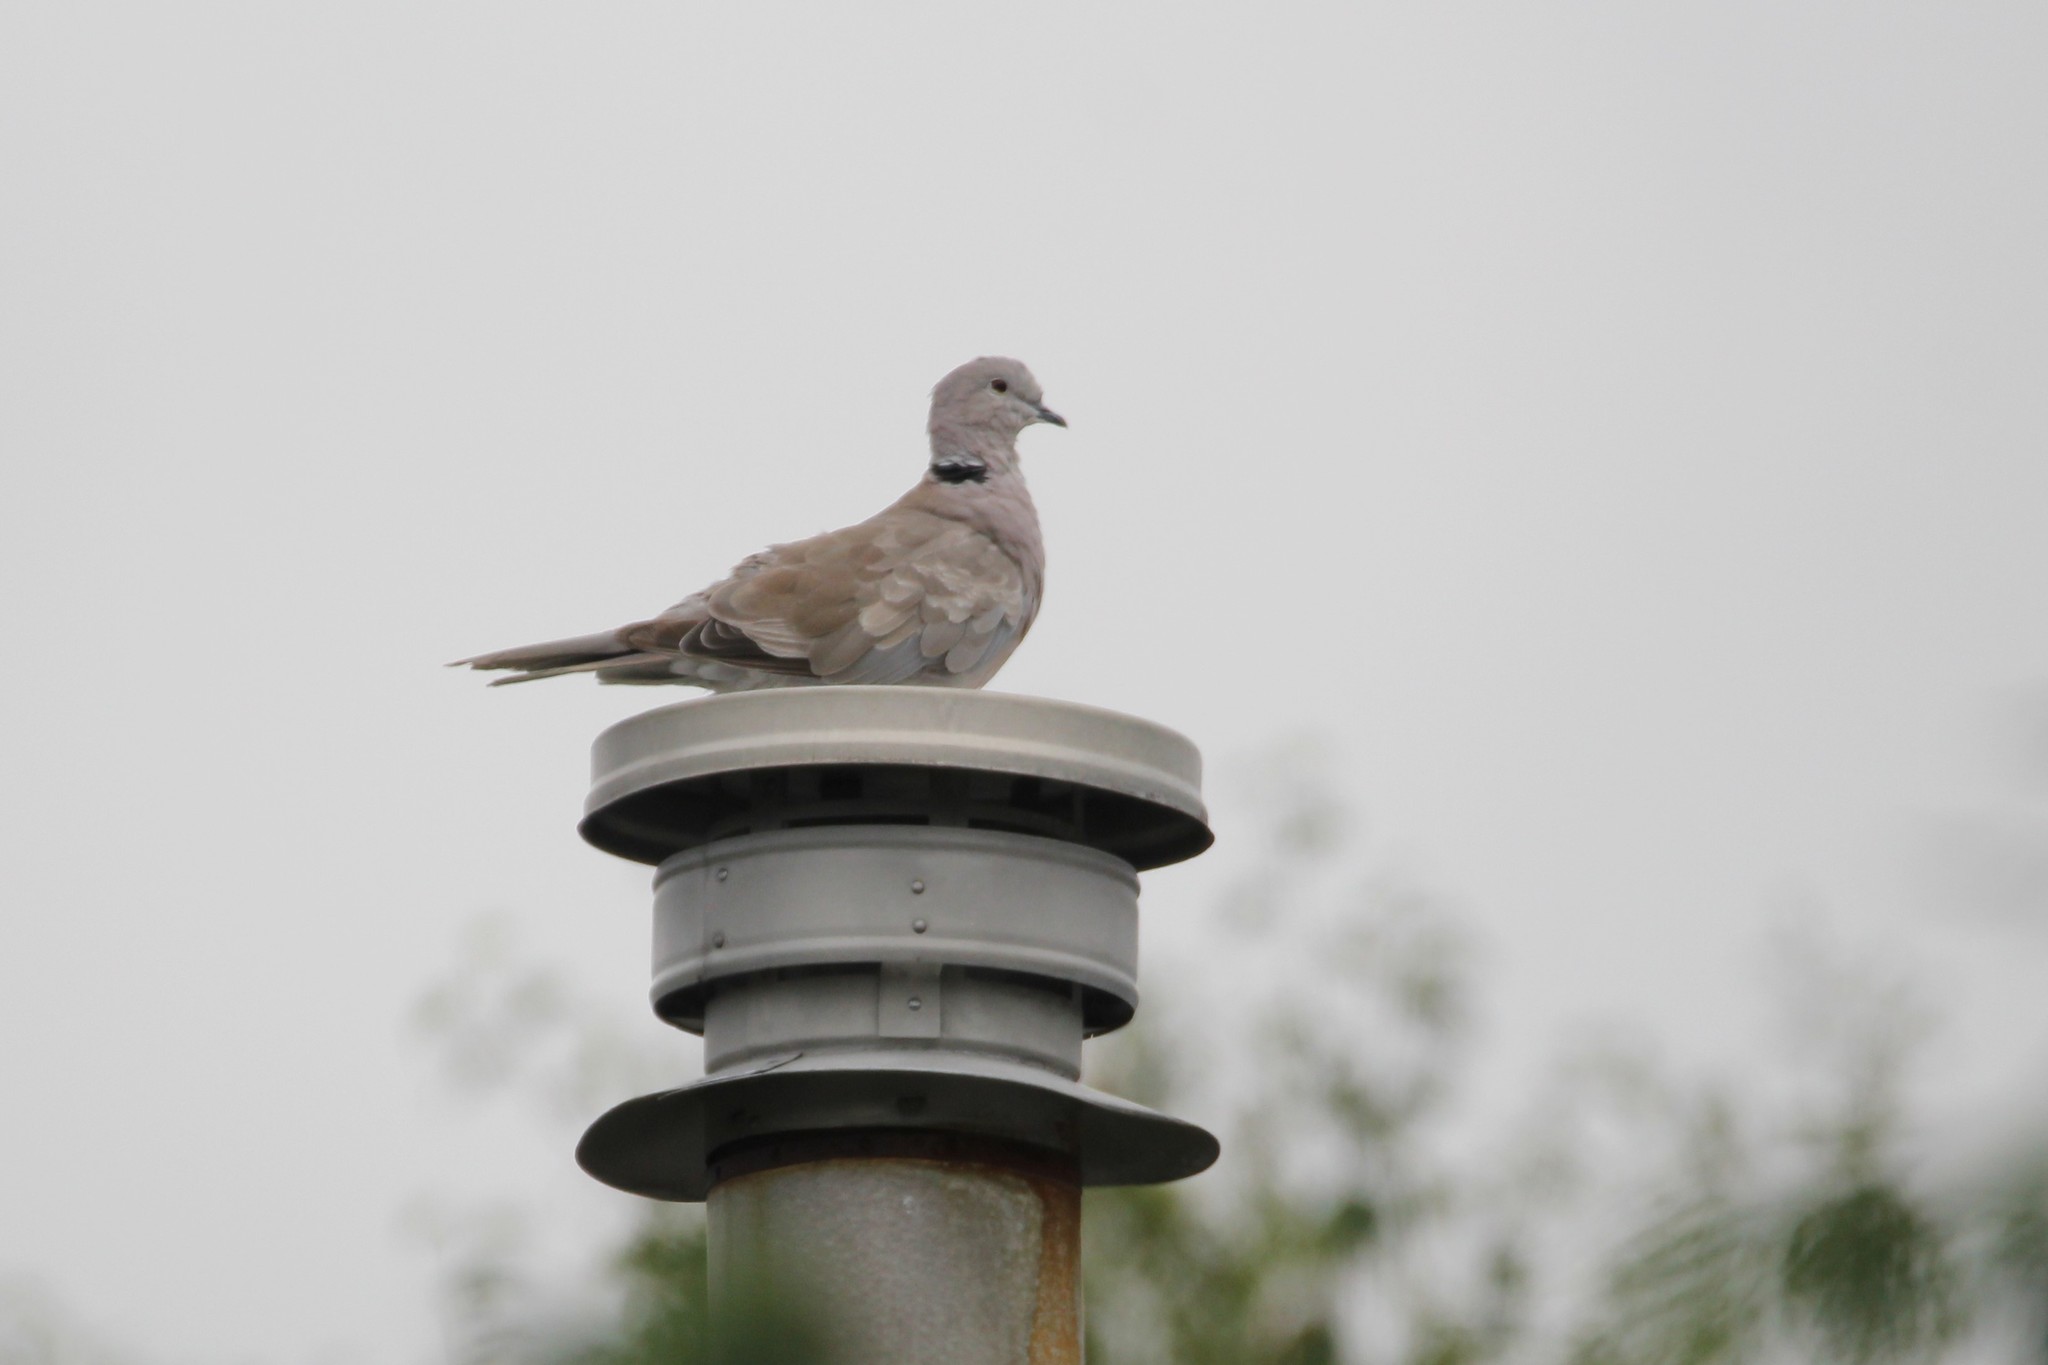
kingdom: Animalia
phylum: Chordata
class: Aves
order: Columbiformes
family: Columbidae
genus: Streptopelia
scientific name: Streptopelia decaocto
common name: Eurasian collared dove
